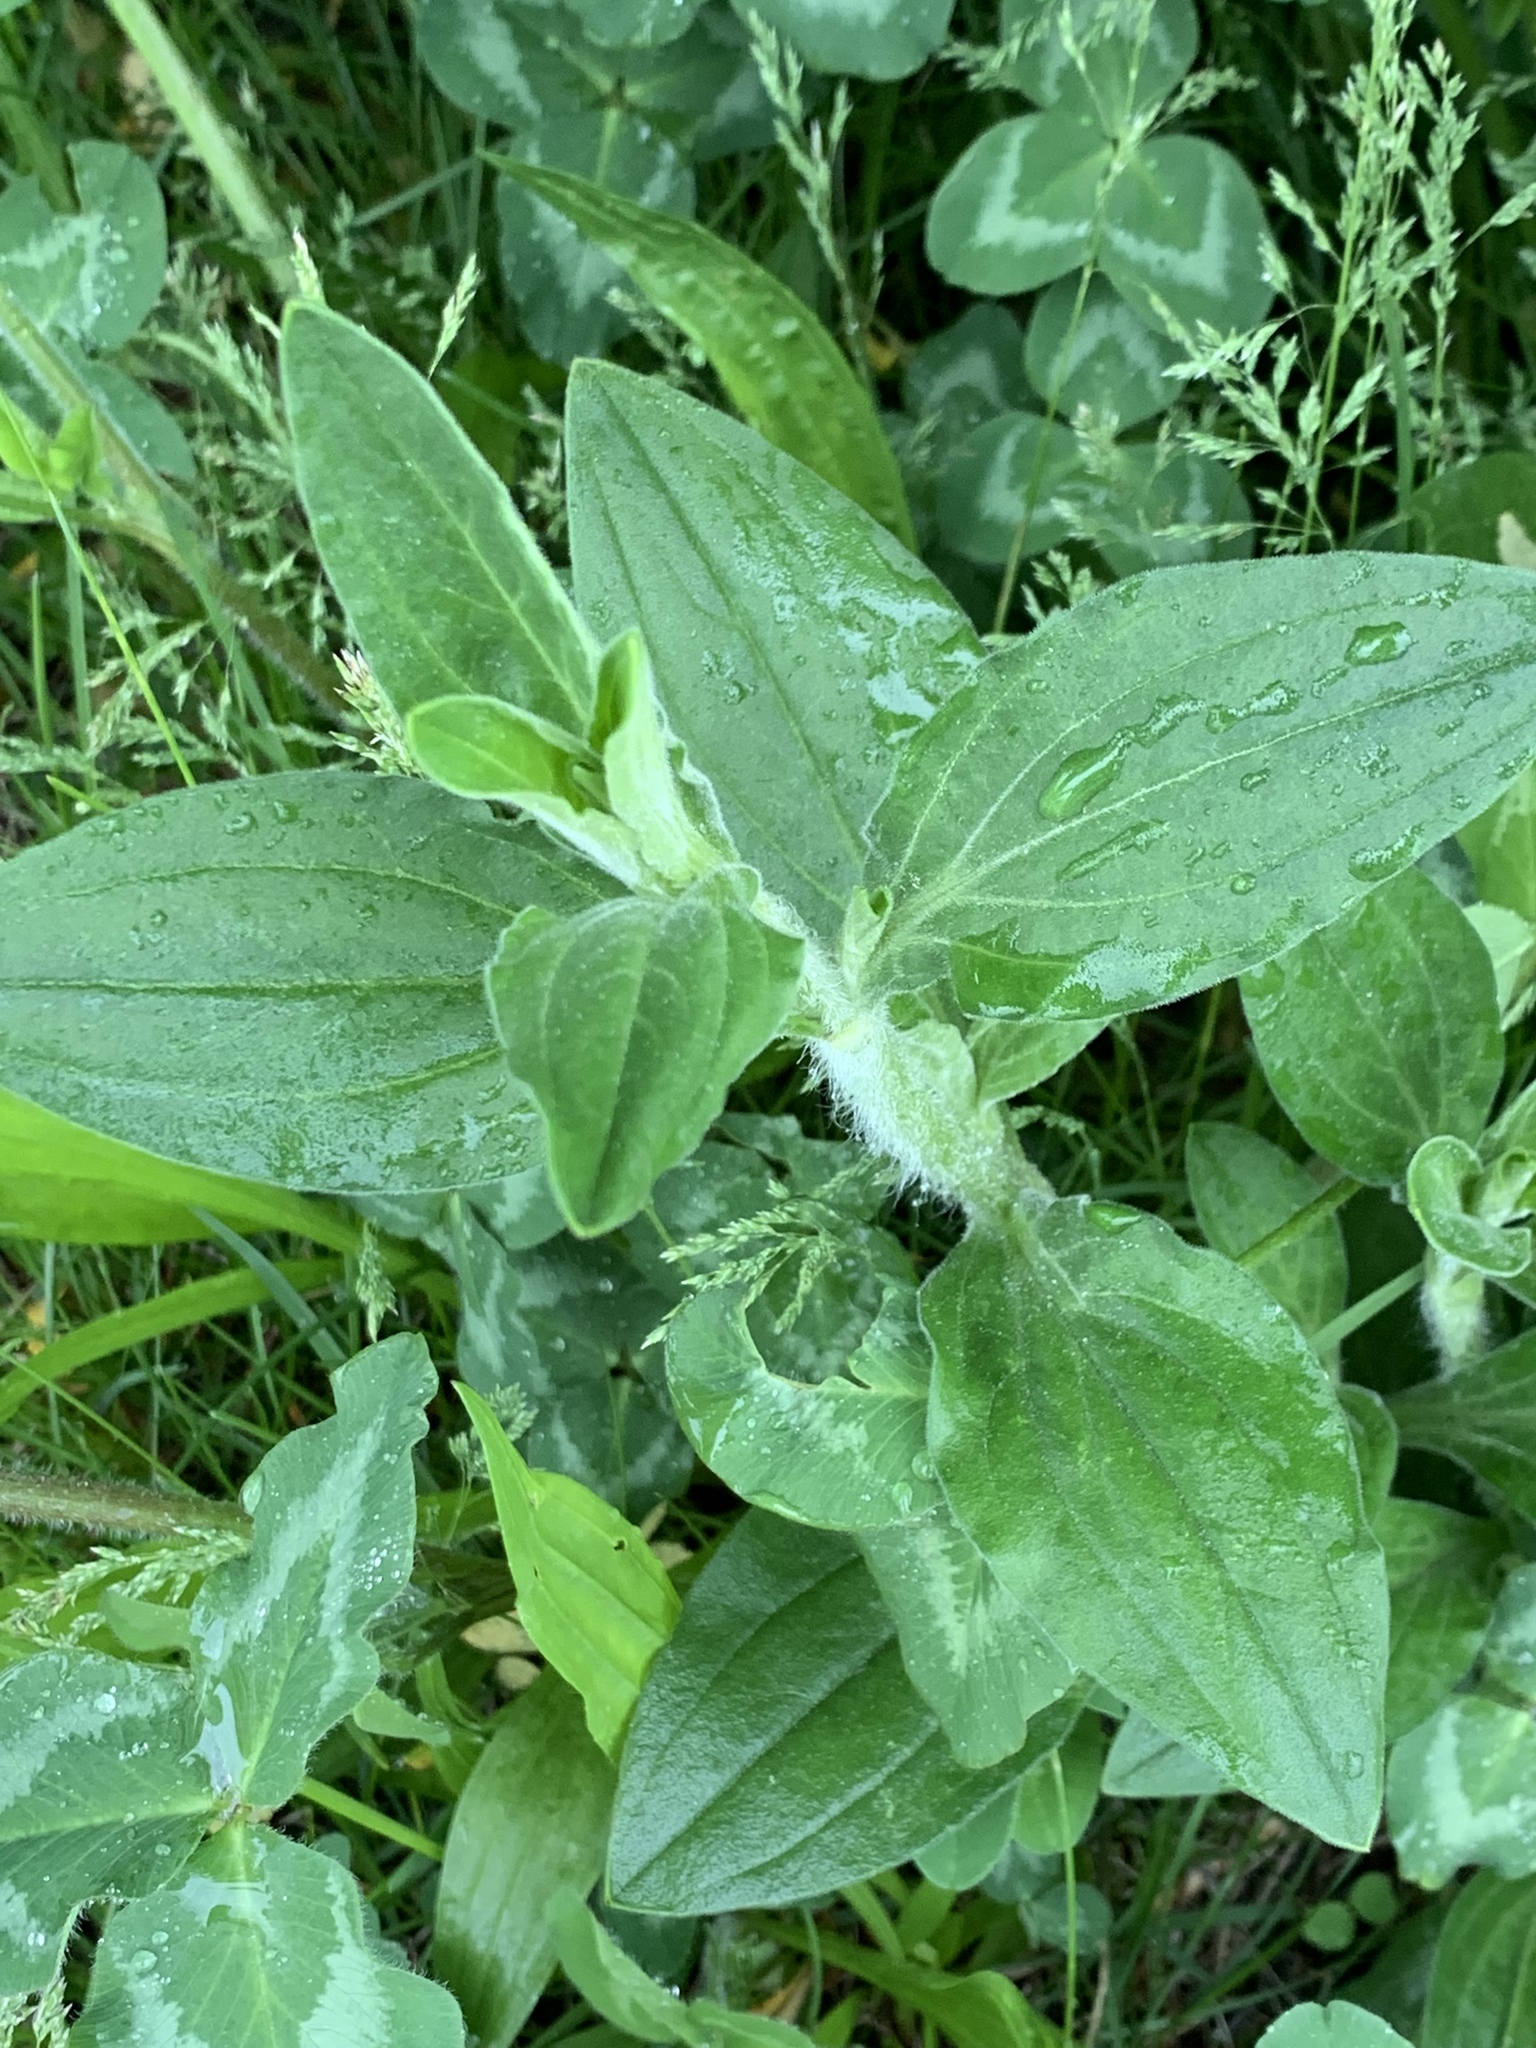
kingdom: Plantae
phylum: Tracheophyta
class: Magnoliopsida
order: Caryophyllales
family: Caryophyllaceae
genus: Silene
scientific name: Silene latifolia
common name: White campion
